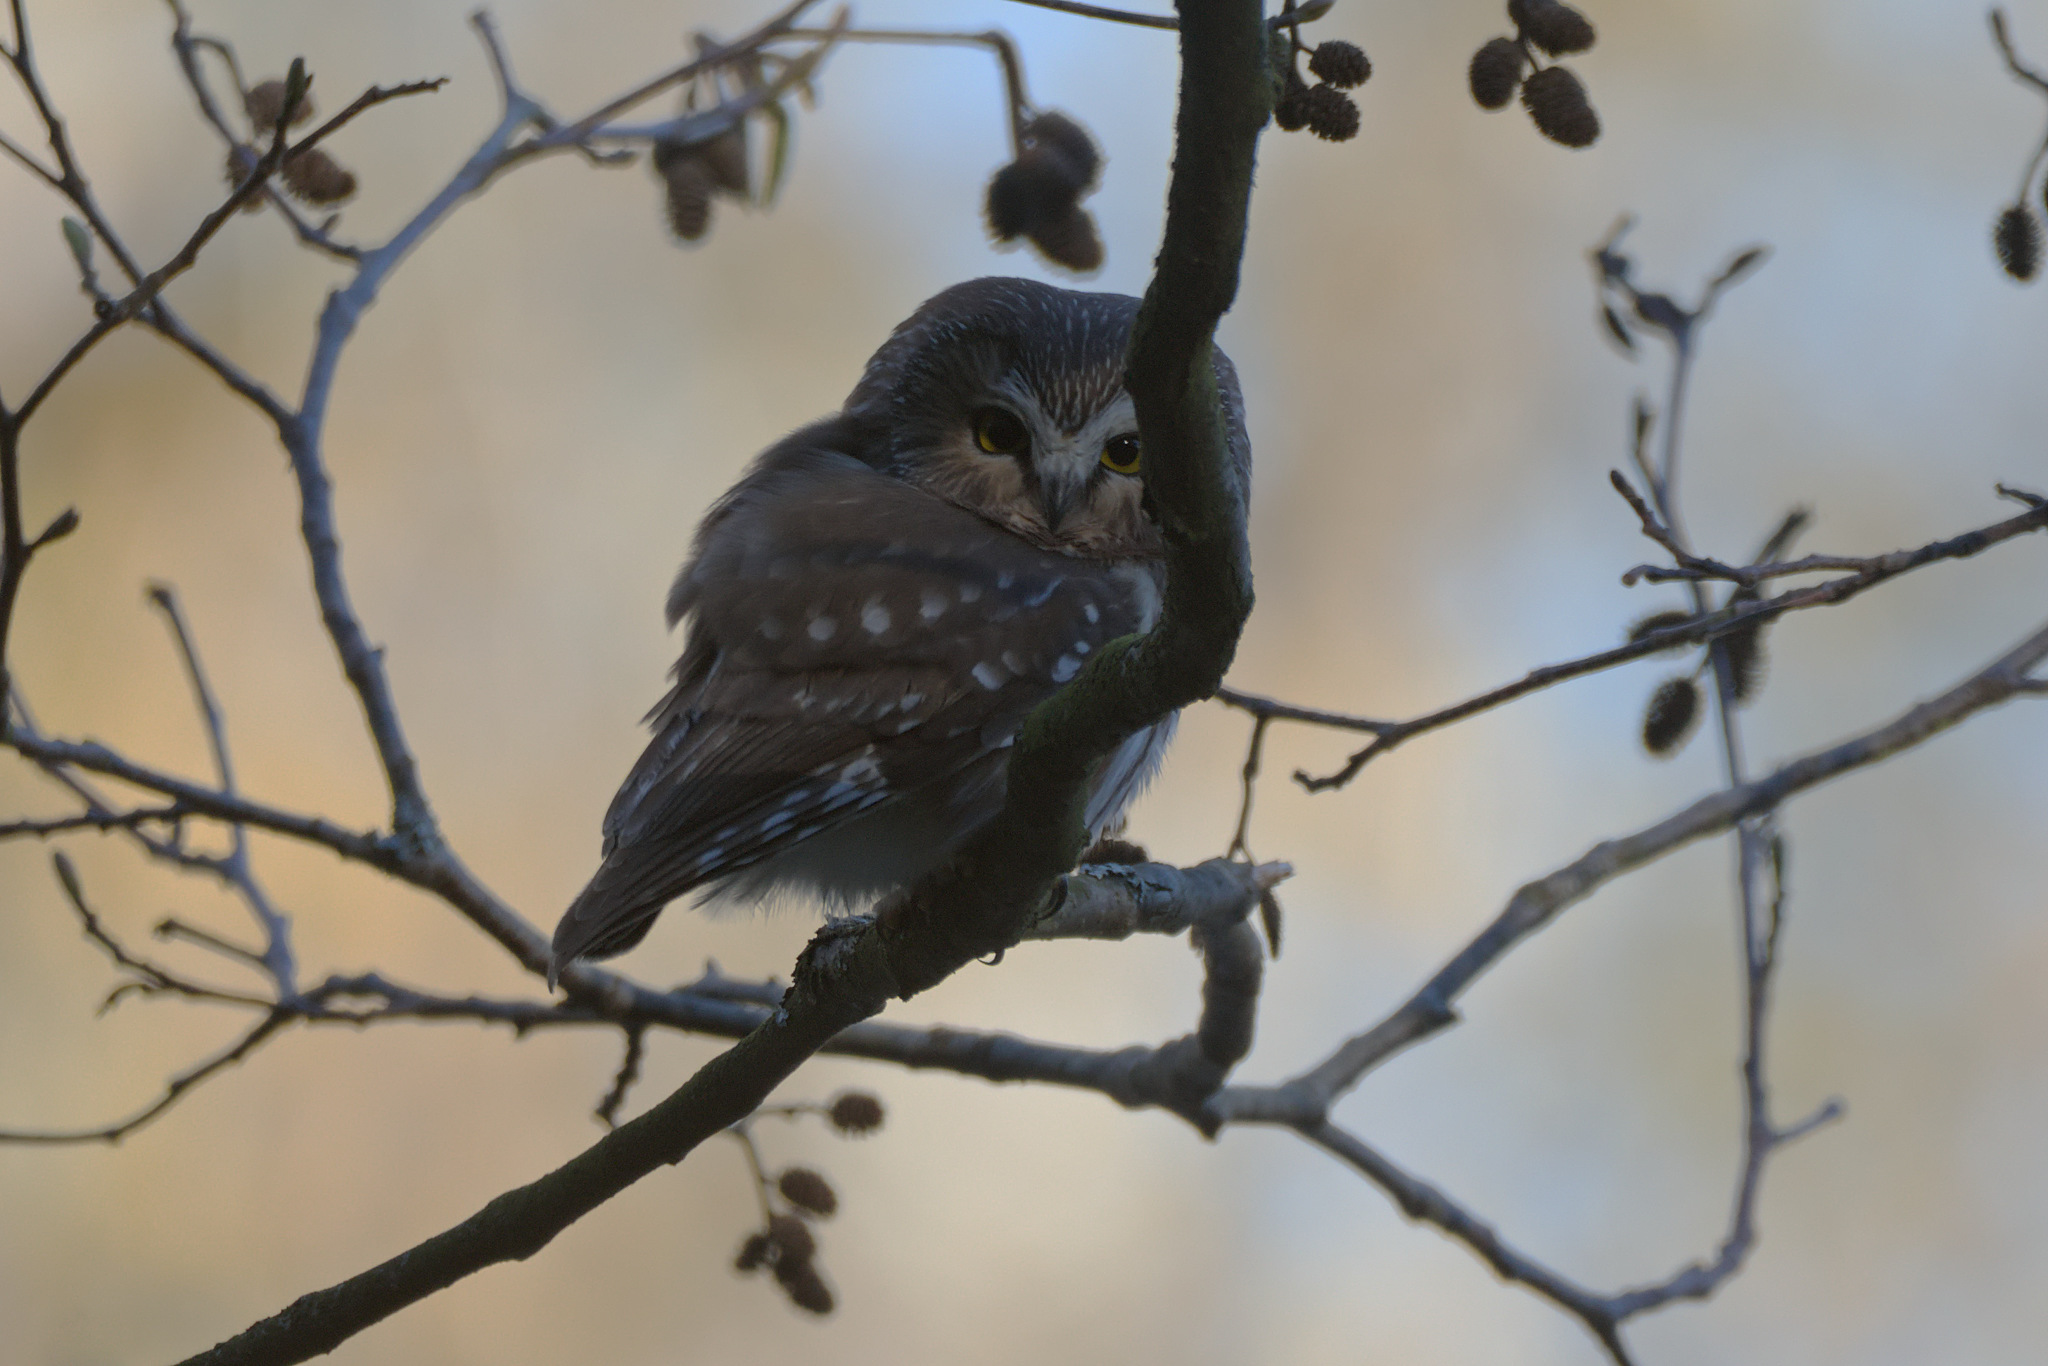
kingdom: Animalia
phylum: Chordata
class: Aves
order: Strigiformes
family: Strigidae
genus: Aegolius
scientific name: Aegolius acadicus
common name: Northern saw-whet owl
